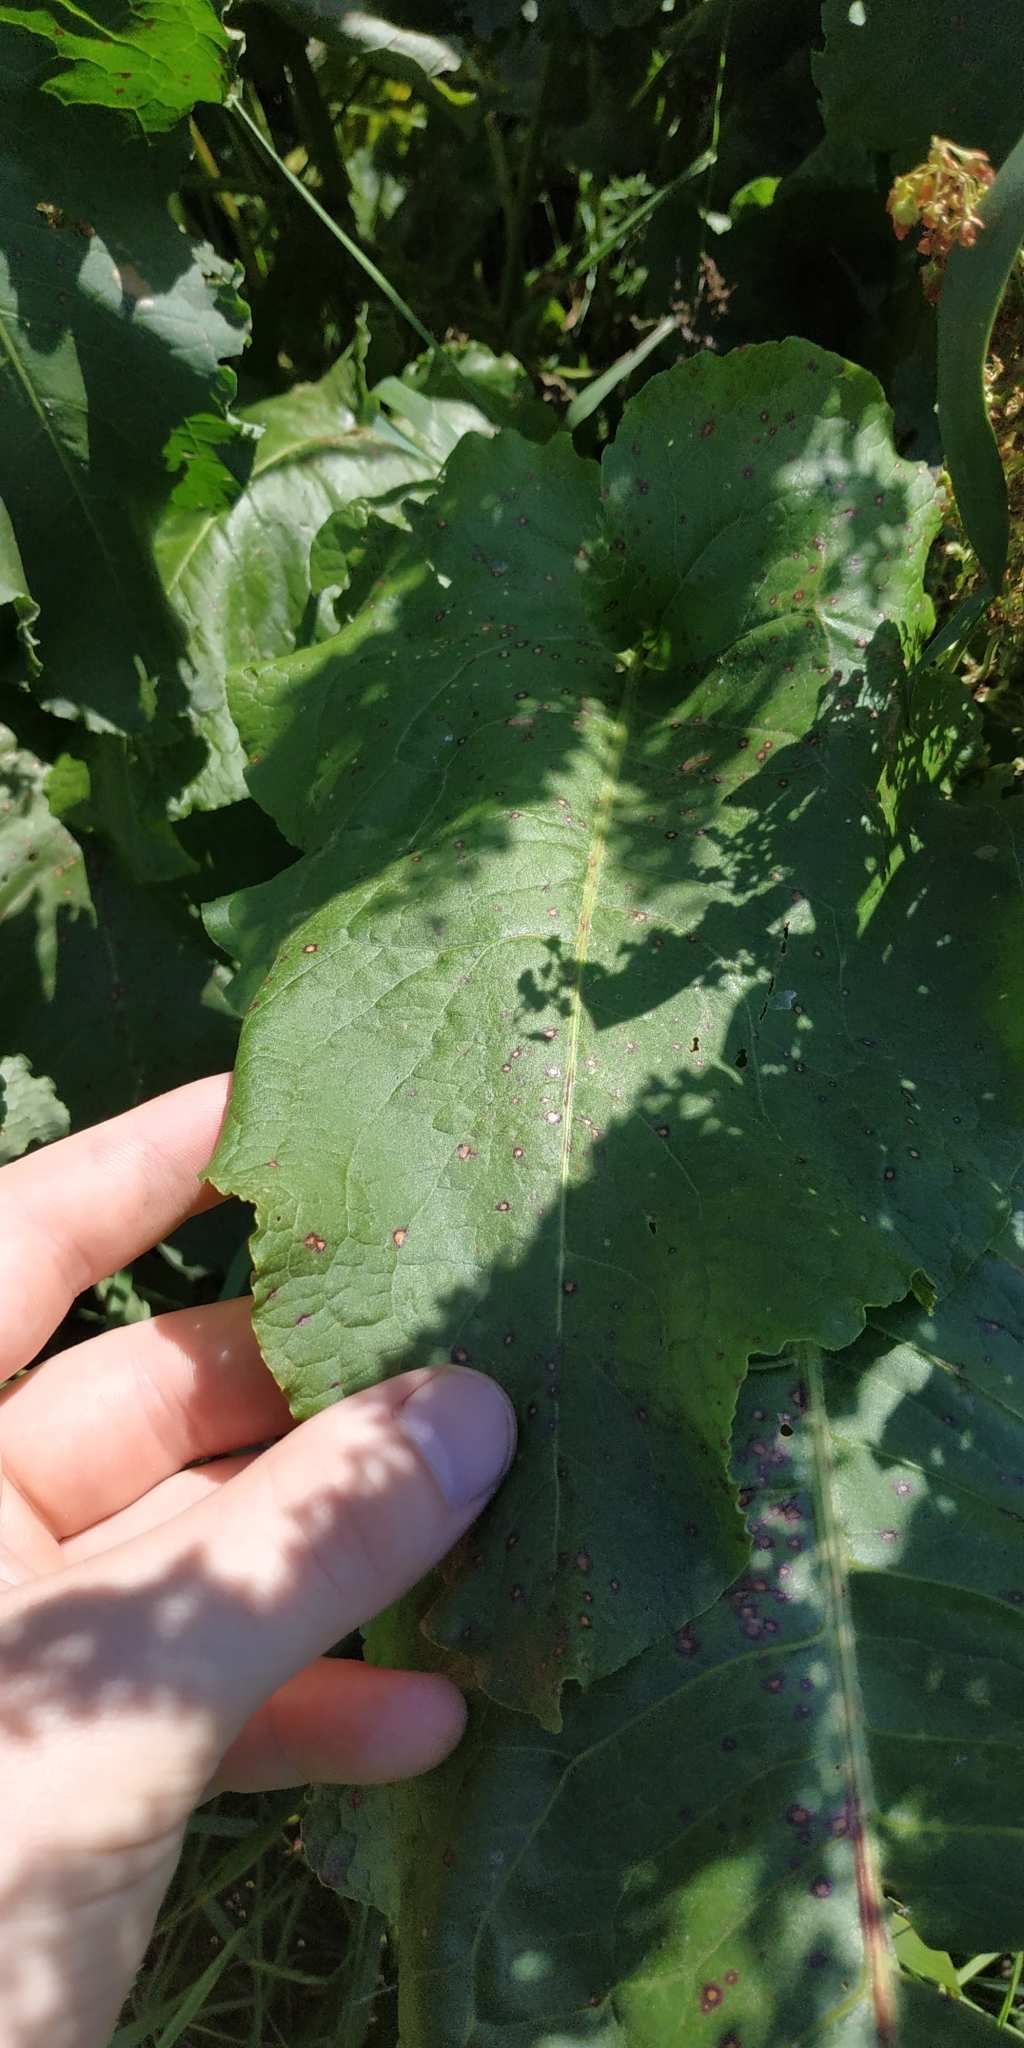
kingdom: Plantae
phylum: Tracheophyta
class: Magnoliopsida
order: Caryophyllales
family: Polygonaceae
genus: Rumex
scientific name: Rumex confertus
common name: Russian dock
